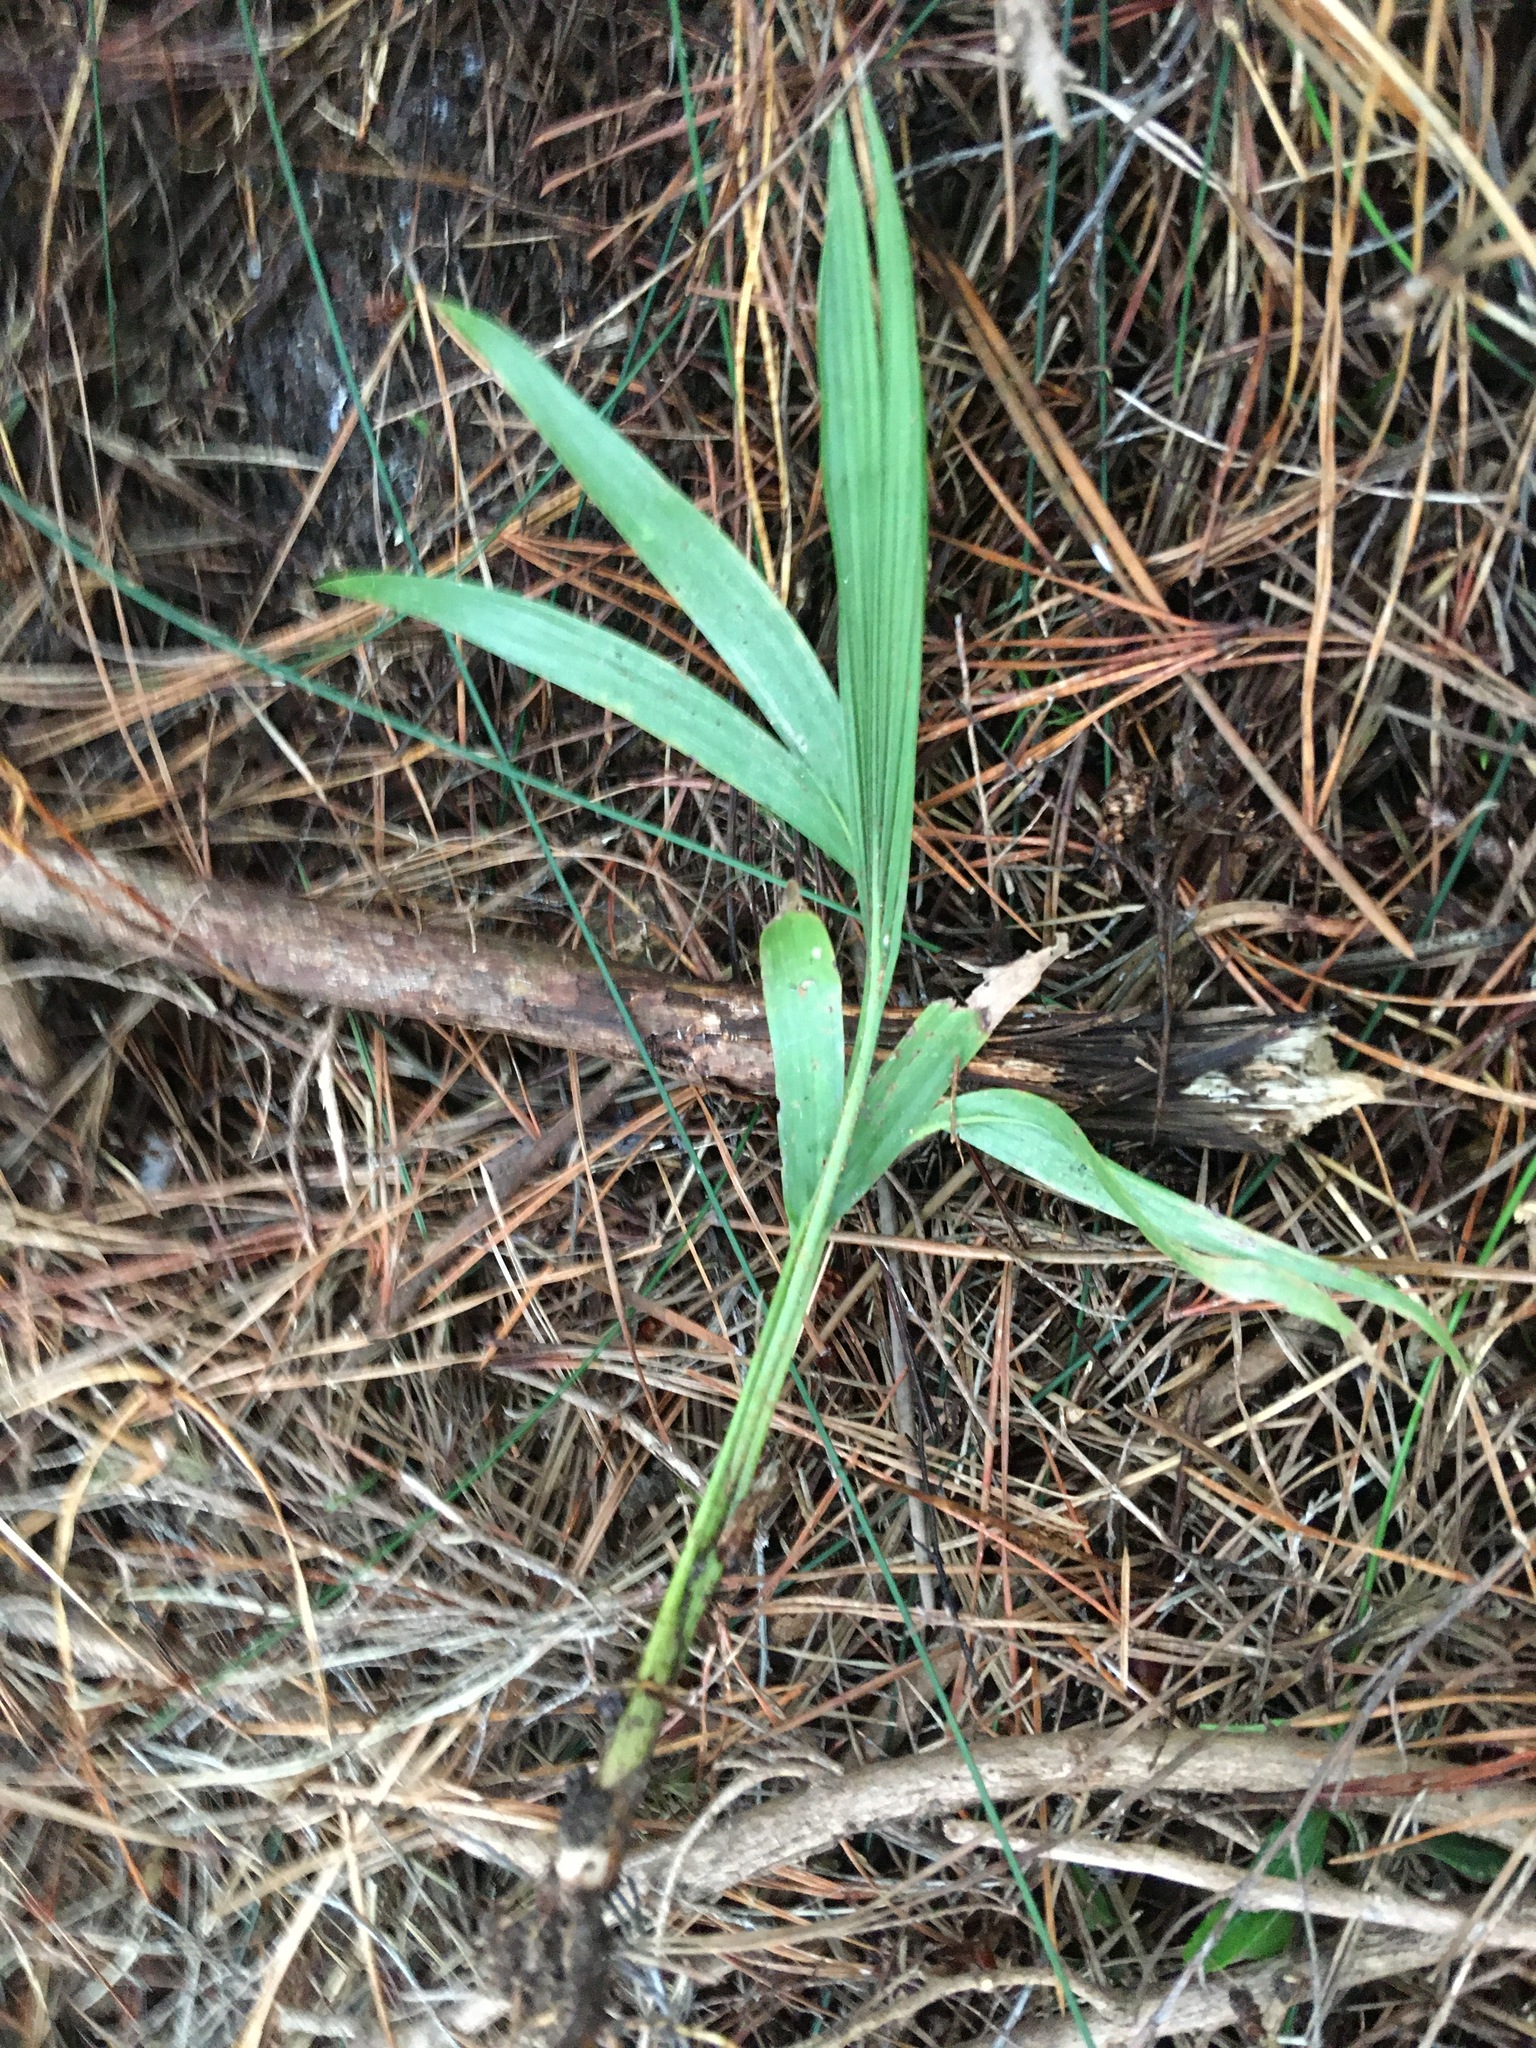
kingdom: Plantae
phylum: Tracheophyta
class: Liliopsida
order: Arecales
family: Arecaceae
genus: Archontophoenix
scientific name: Archontophoenix cunninghamiana
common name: Piccabeen bangalow palm
